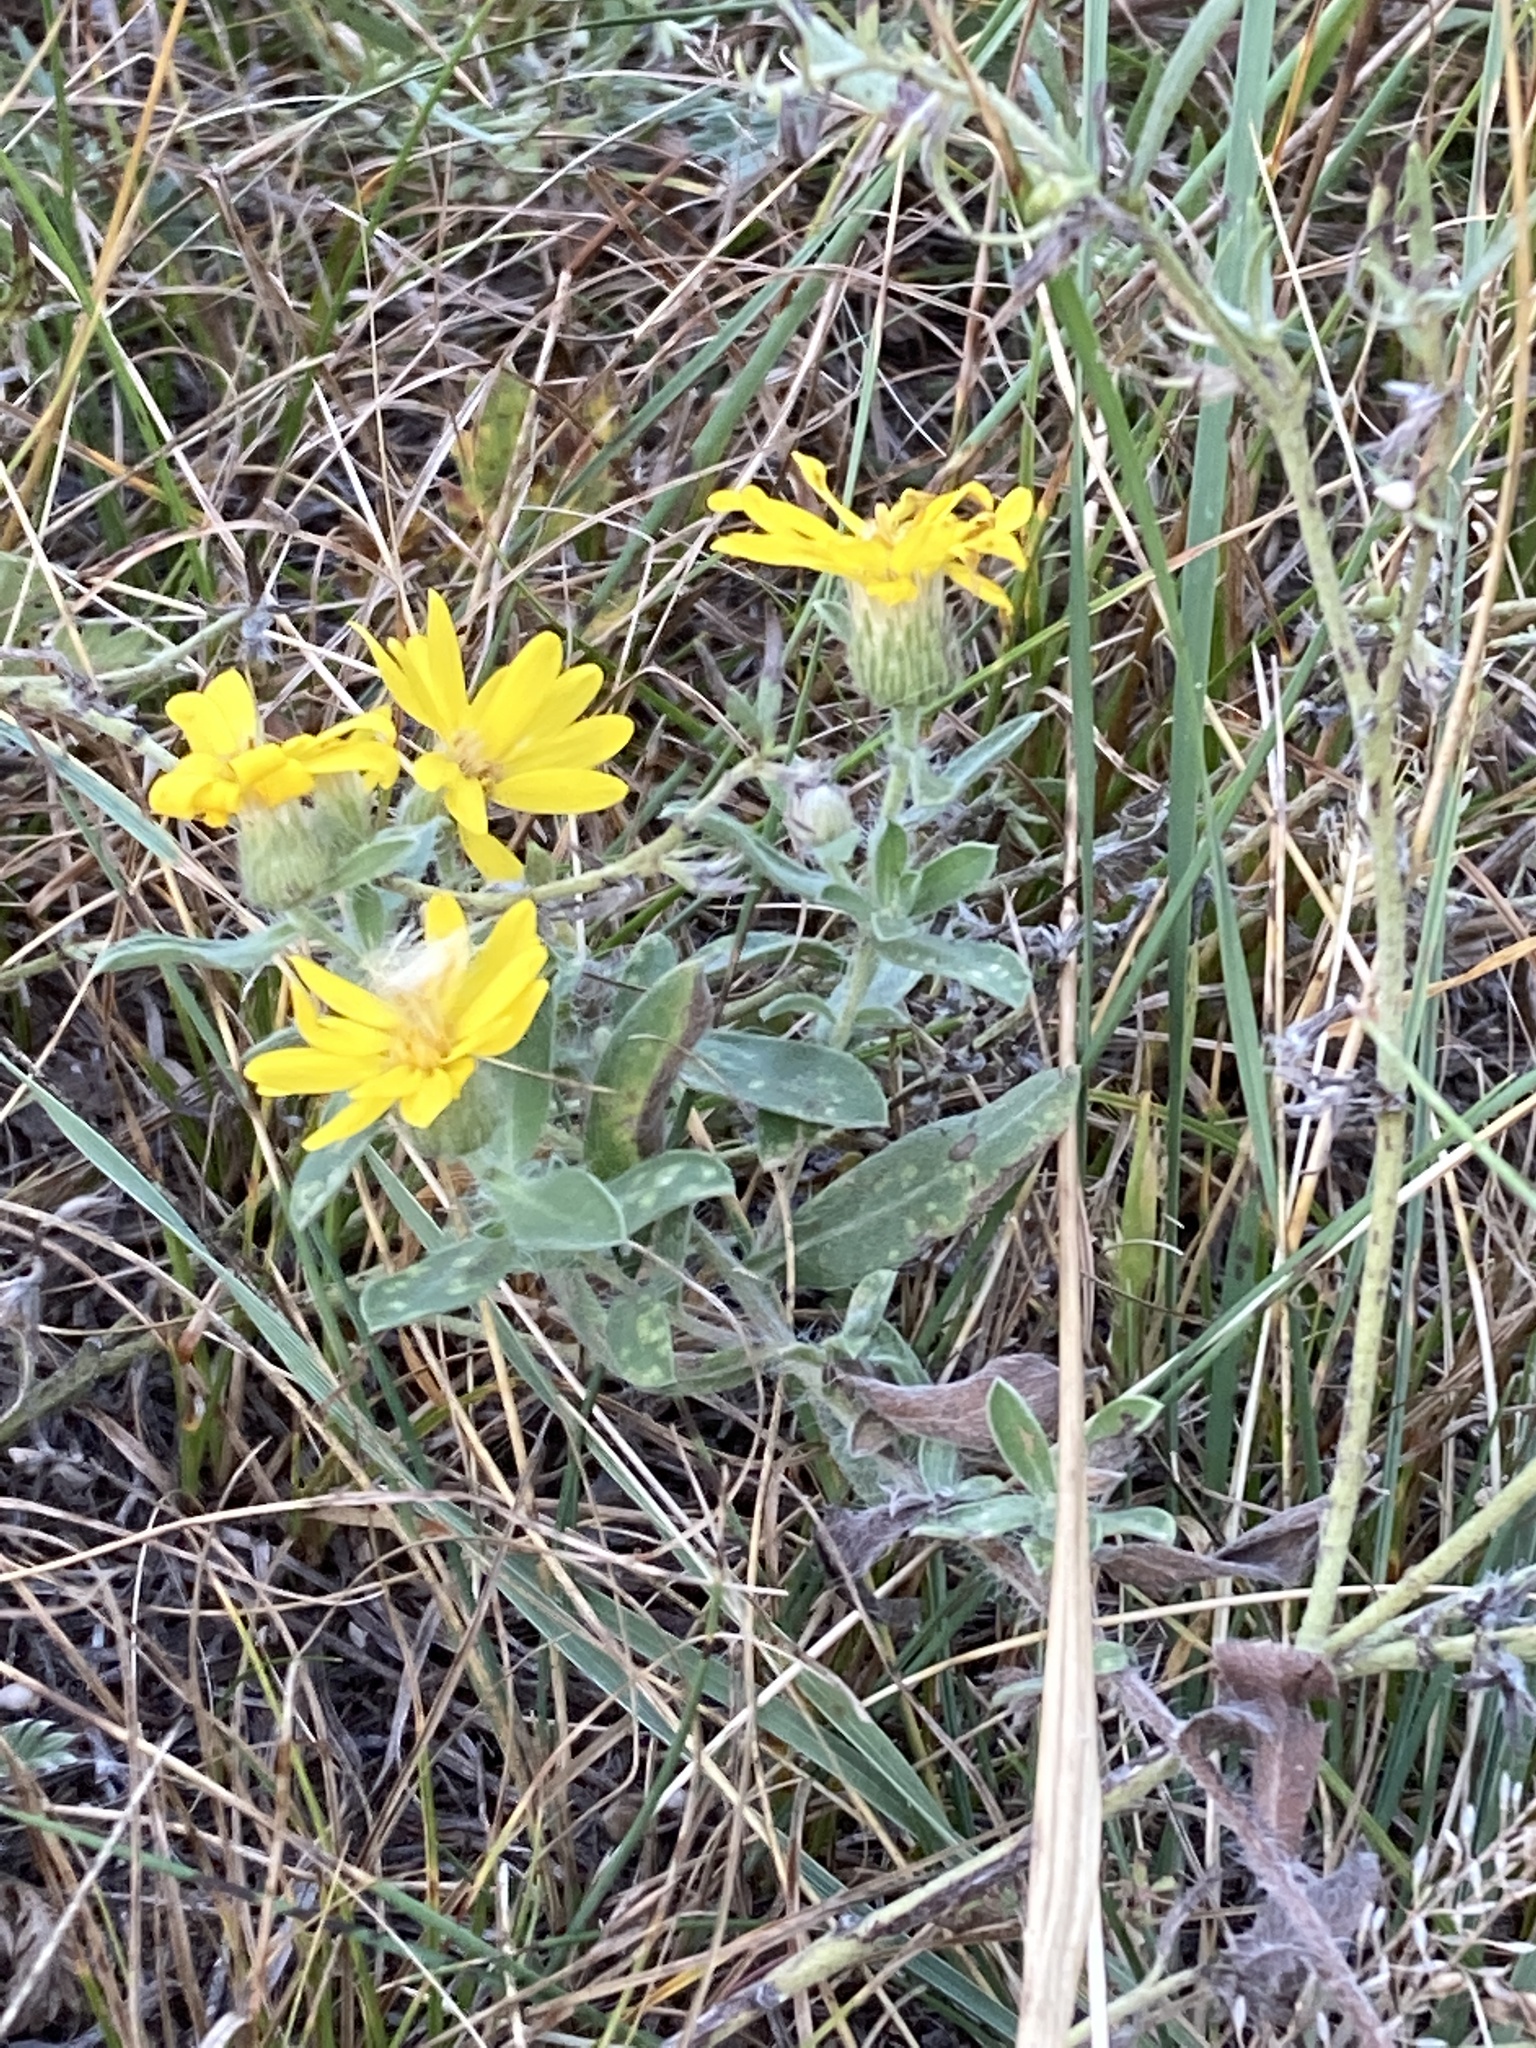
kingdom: Plantae
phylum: Tracheophyta
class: Magnoliopsida
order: Asterales
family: Asteraceae
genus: Heterotheca
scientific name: Heterotheca villosa
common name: Hairy false goldenaster
